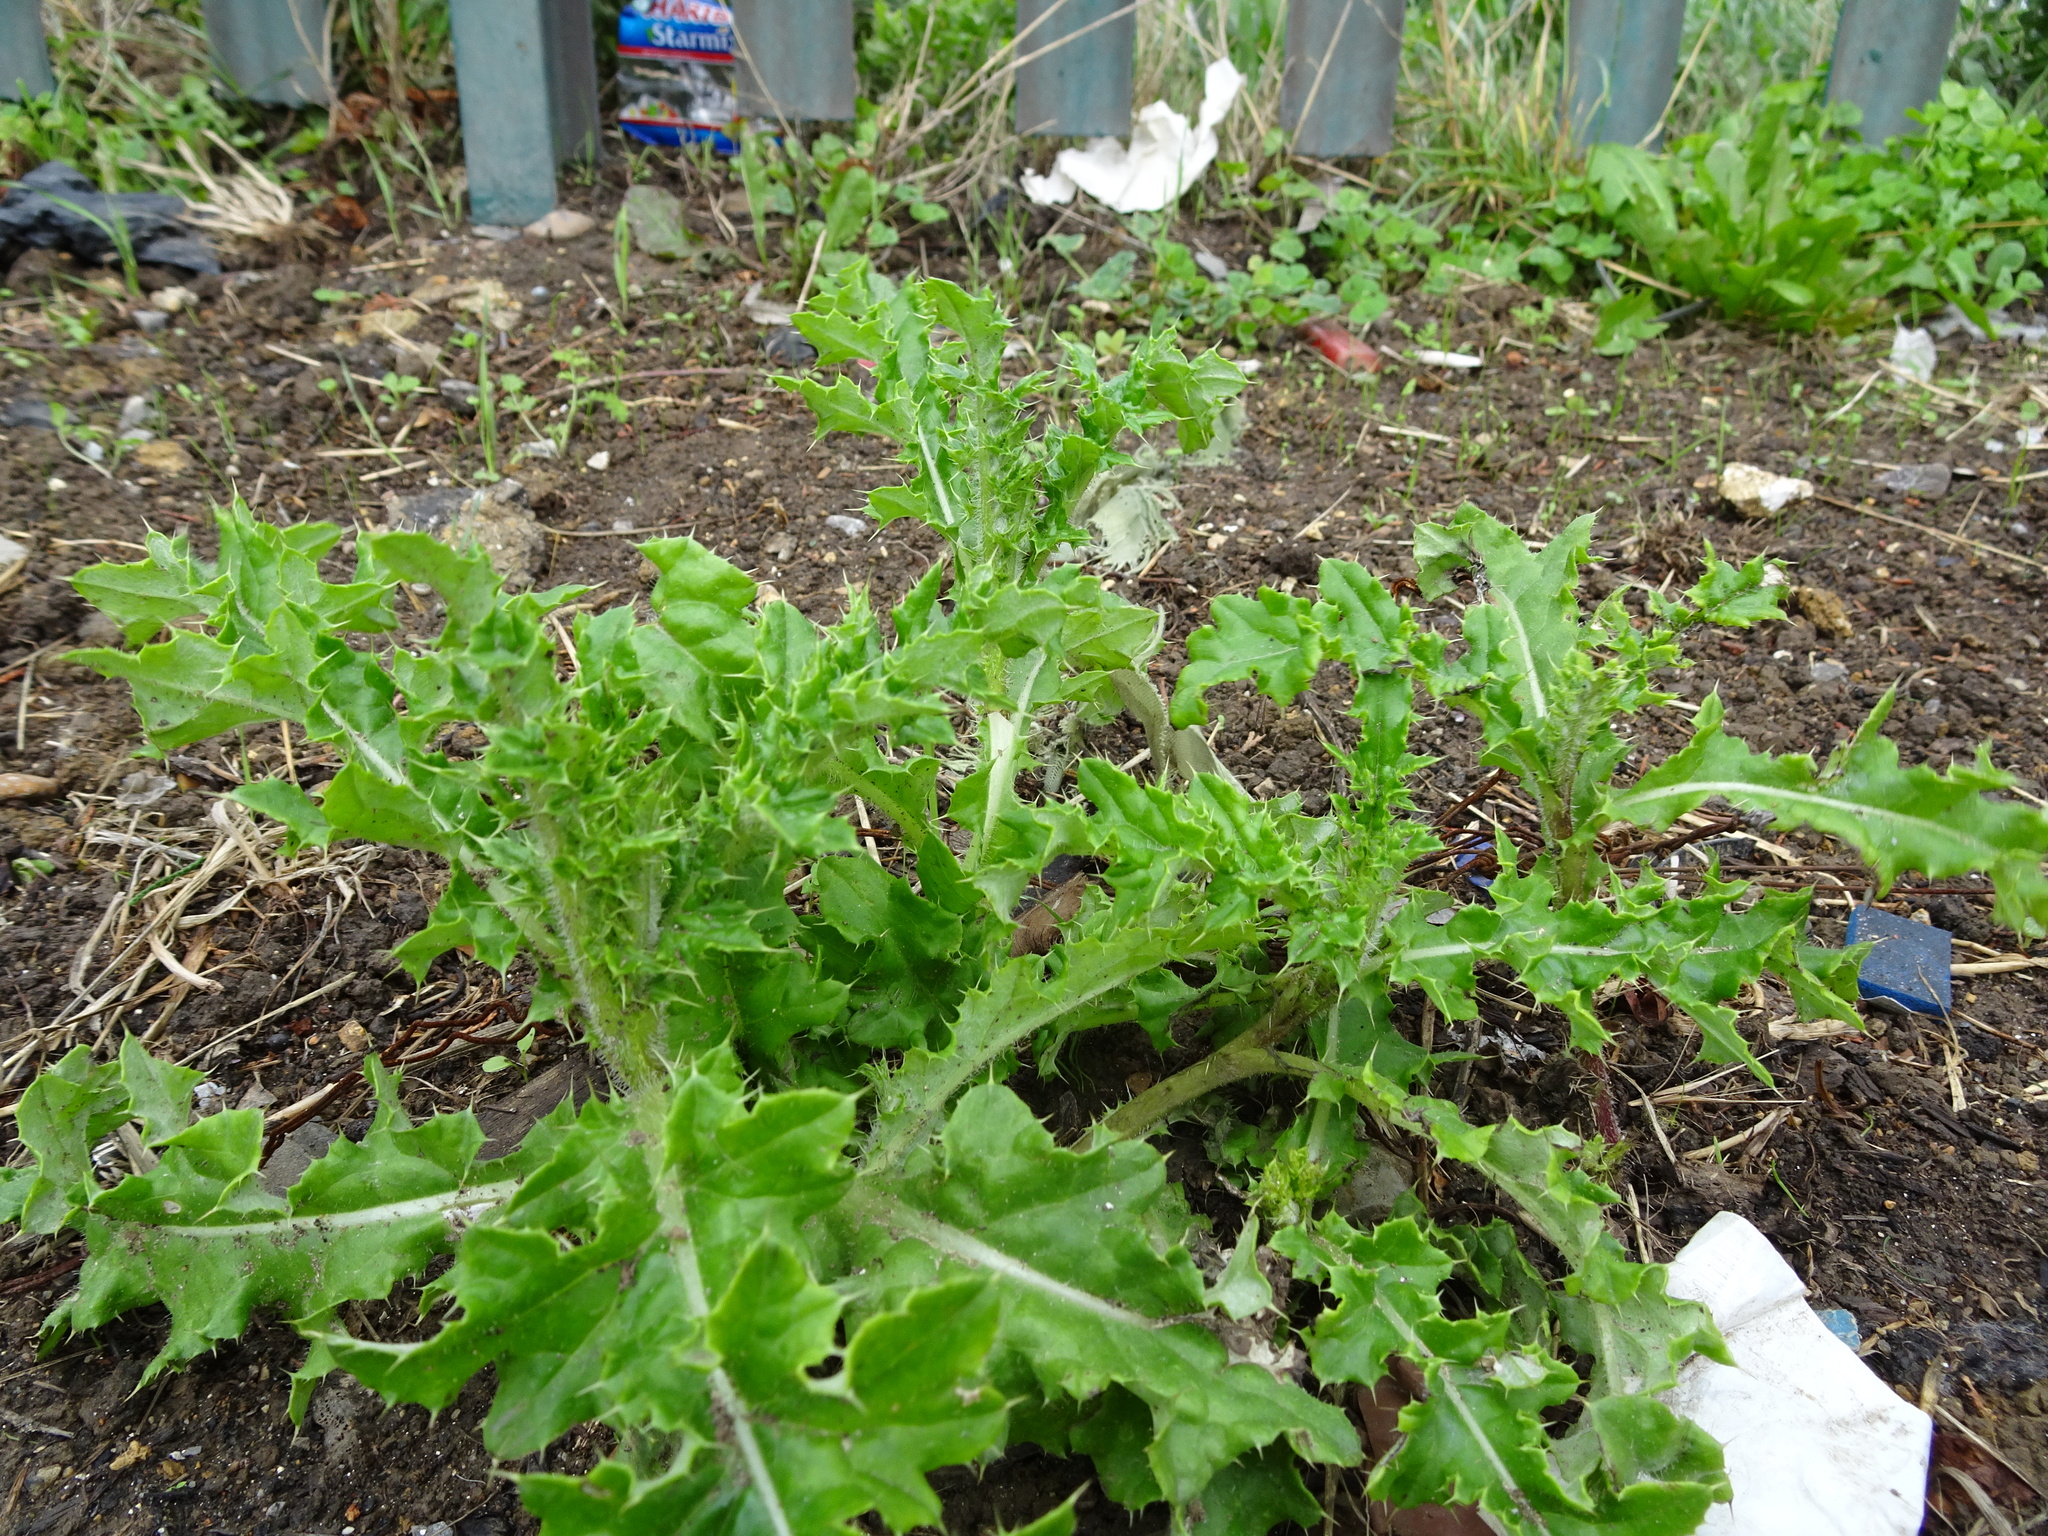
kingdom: Plantae
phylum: Tracheophyta
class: Magnoliopsida
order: Asterales
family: Asteraceae
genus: Cirsium
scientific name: Cirsium arvense
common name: Creeping thistle
